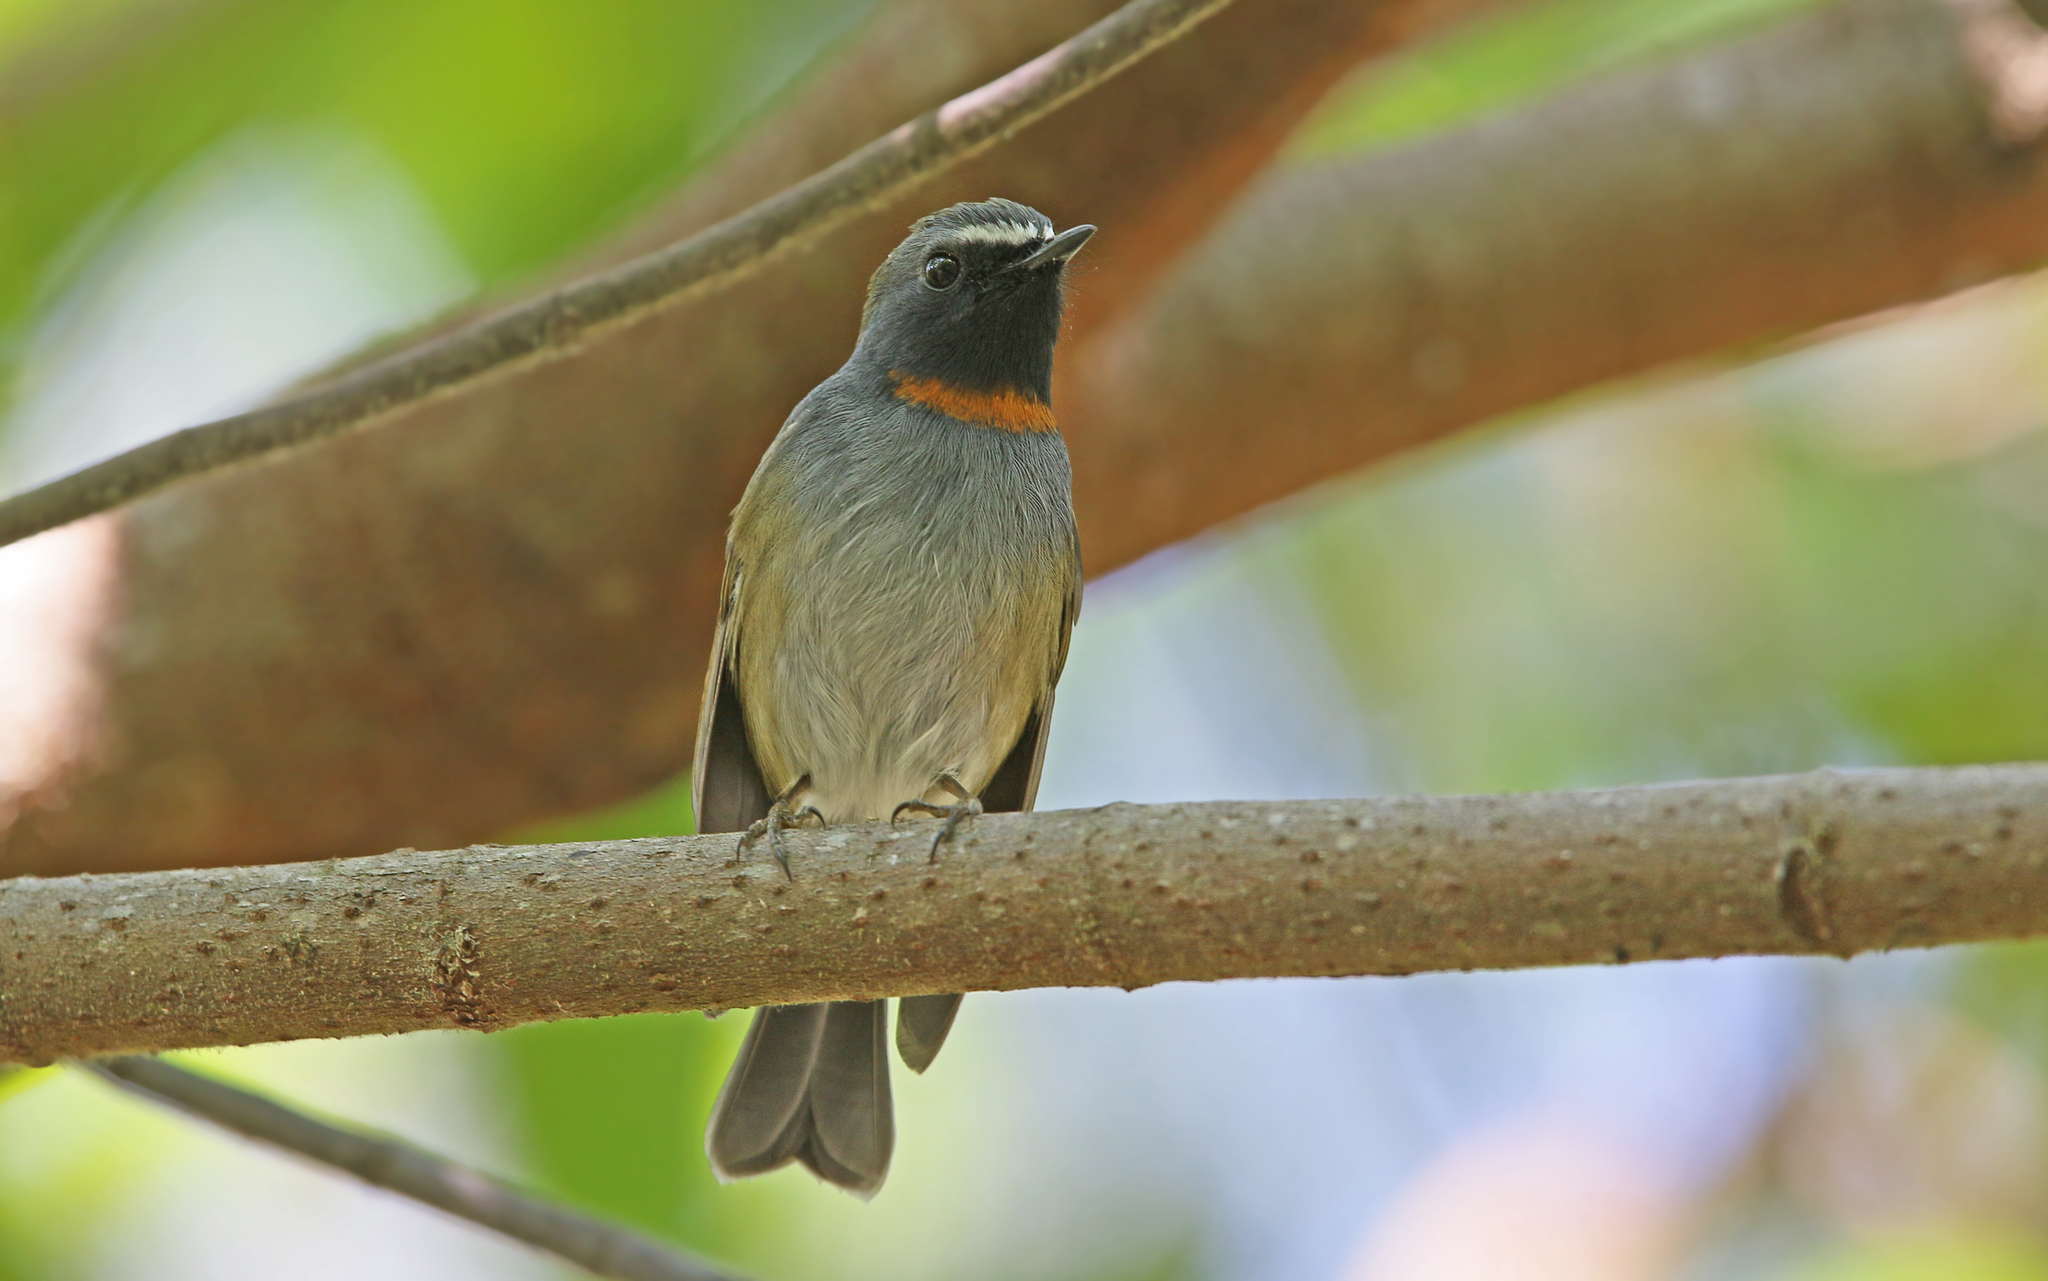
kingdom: Animalia
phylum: Chordata
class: Aves
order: Passeriformes
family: Muscicapidae
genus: Ficedula
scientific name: Ficedula strophiata
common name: Rufous-gorgeted flycatcher
